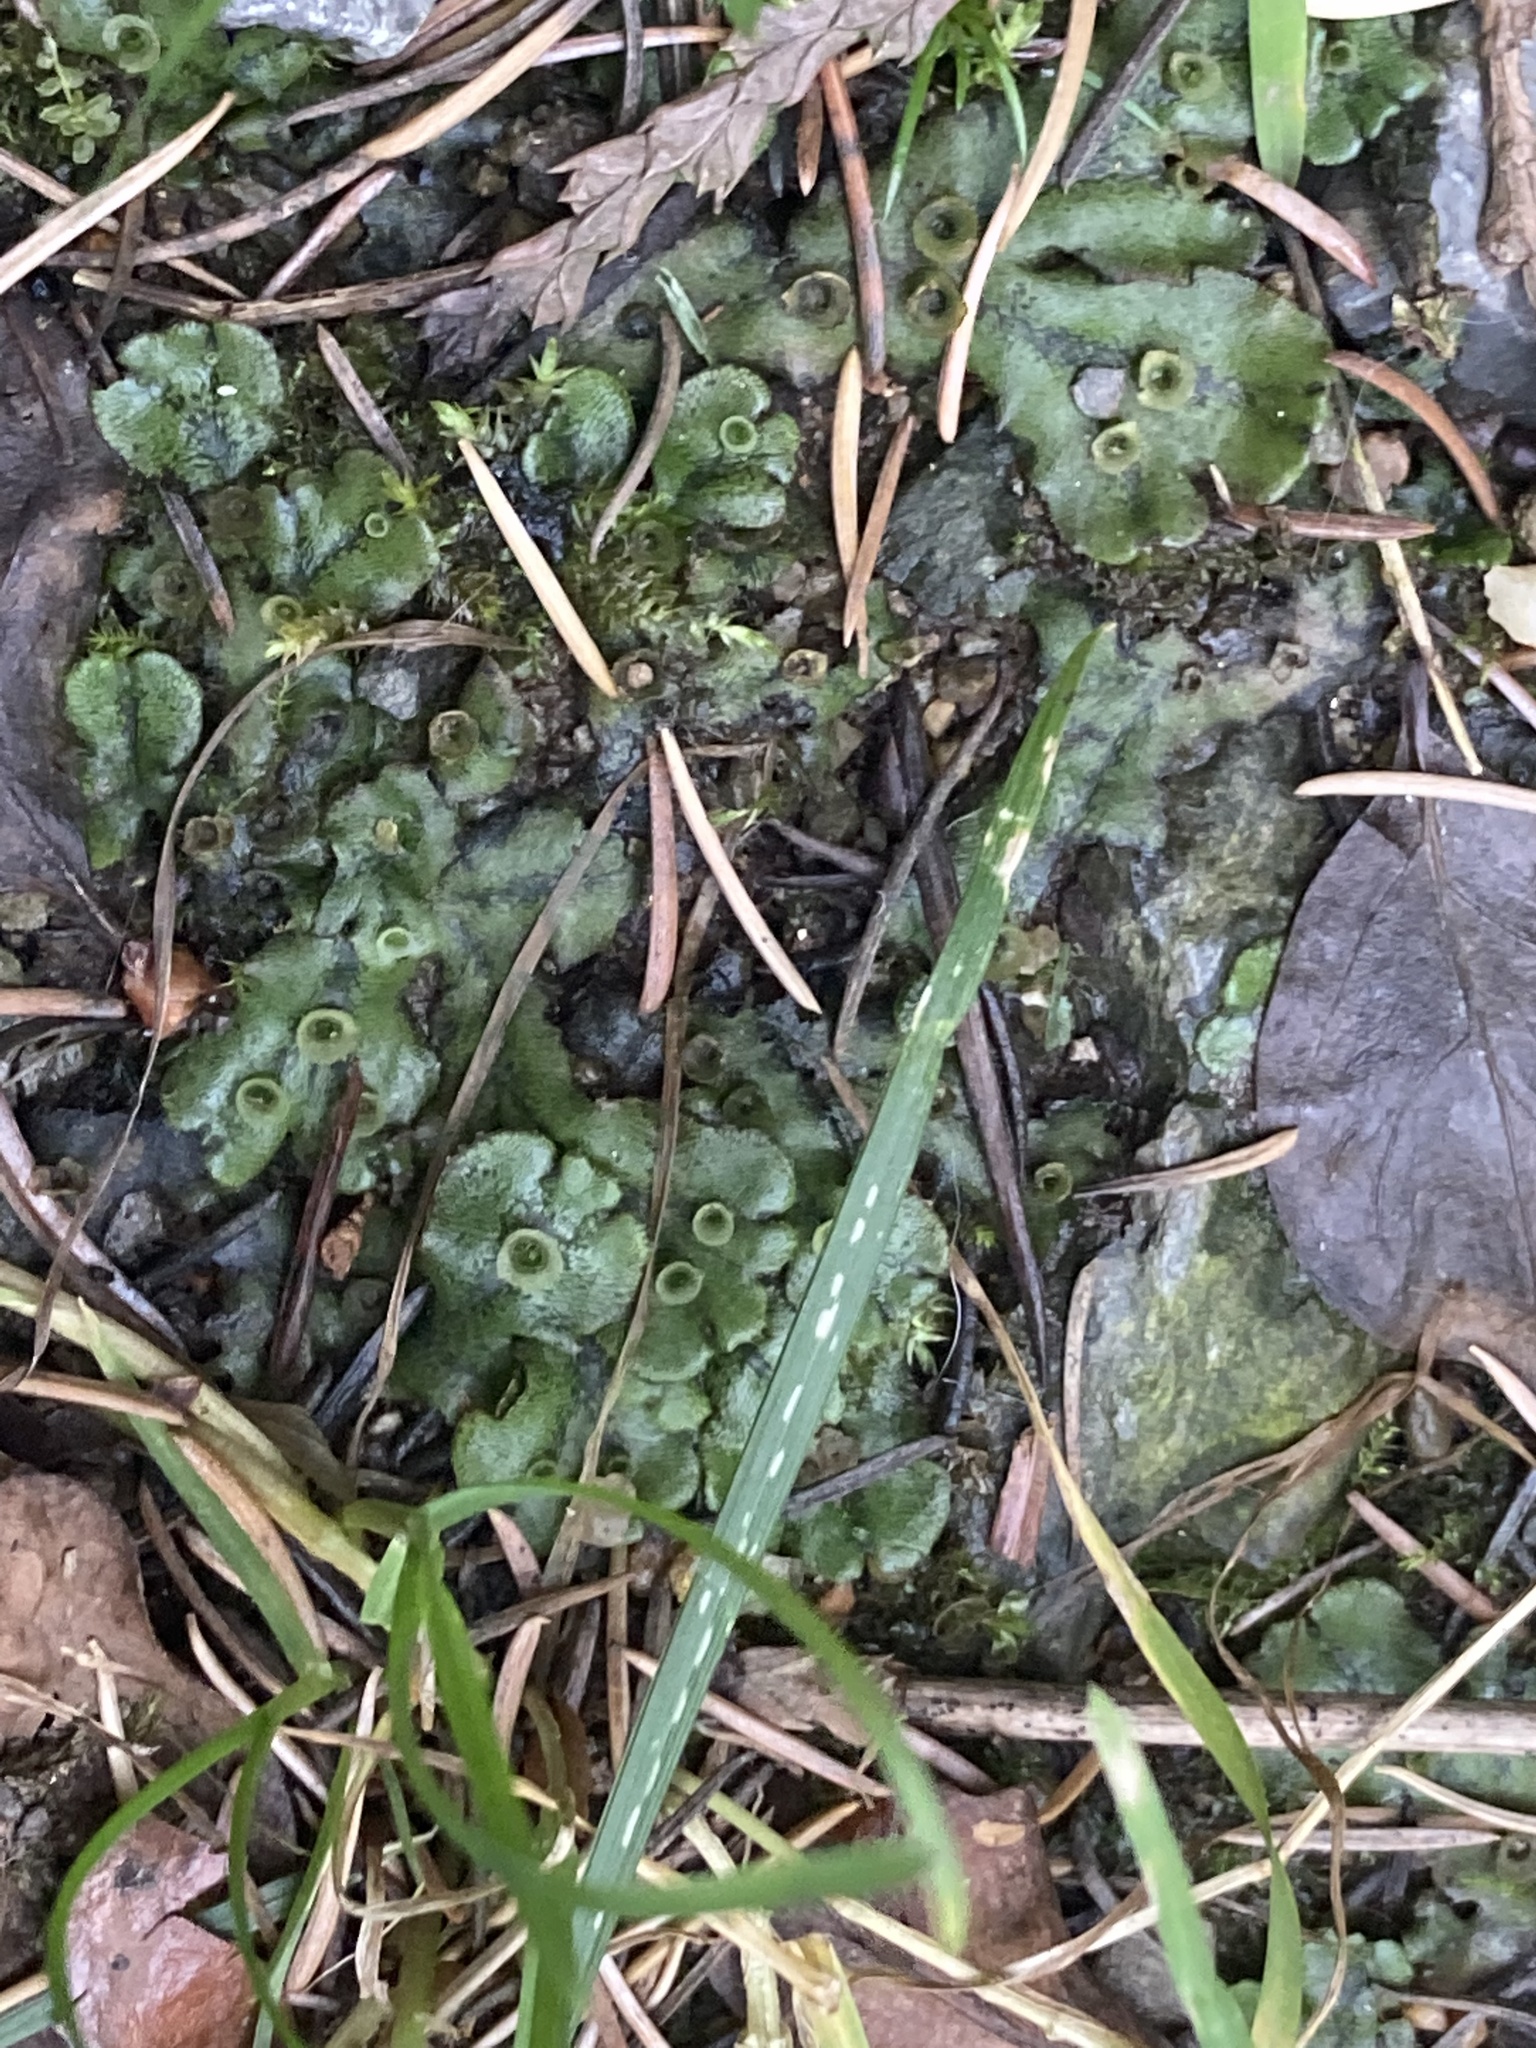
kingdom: Plantae
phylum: Marchantiophyta
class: Marchantiopsida
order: Marchantiales
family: Marchantiaceae
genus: Marchantia
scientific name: Marchantia polymorpha
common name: Common liverwort
